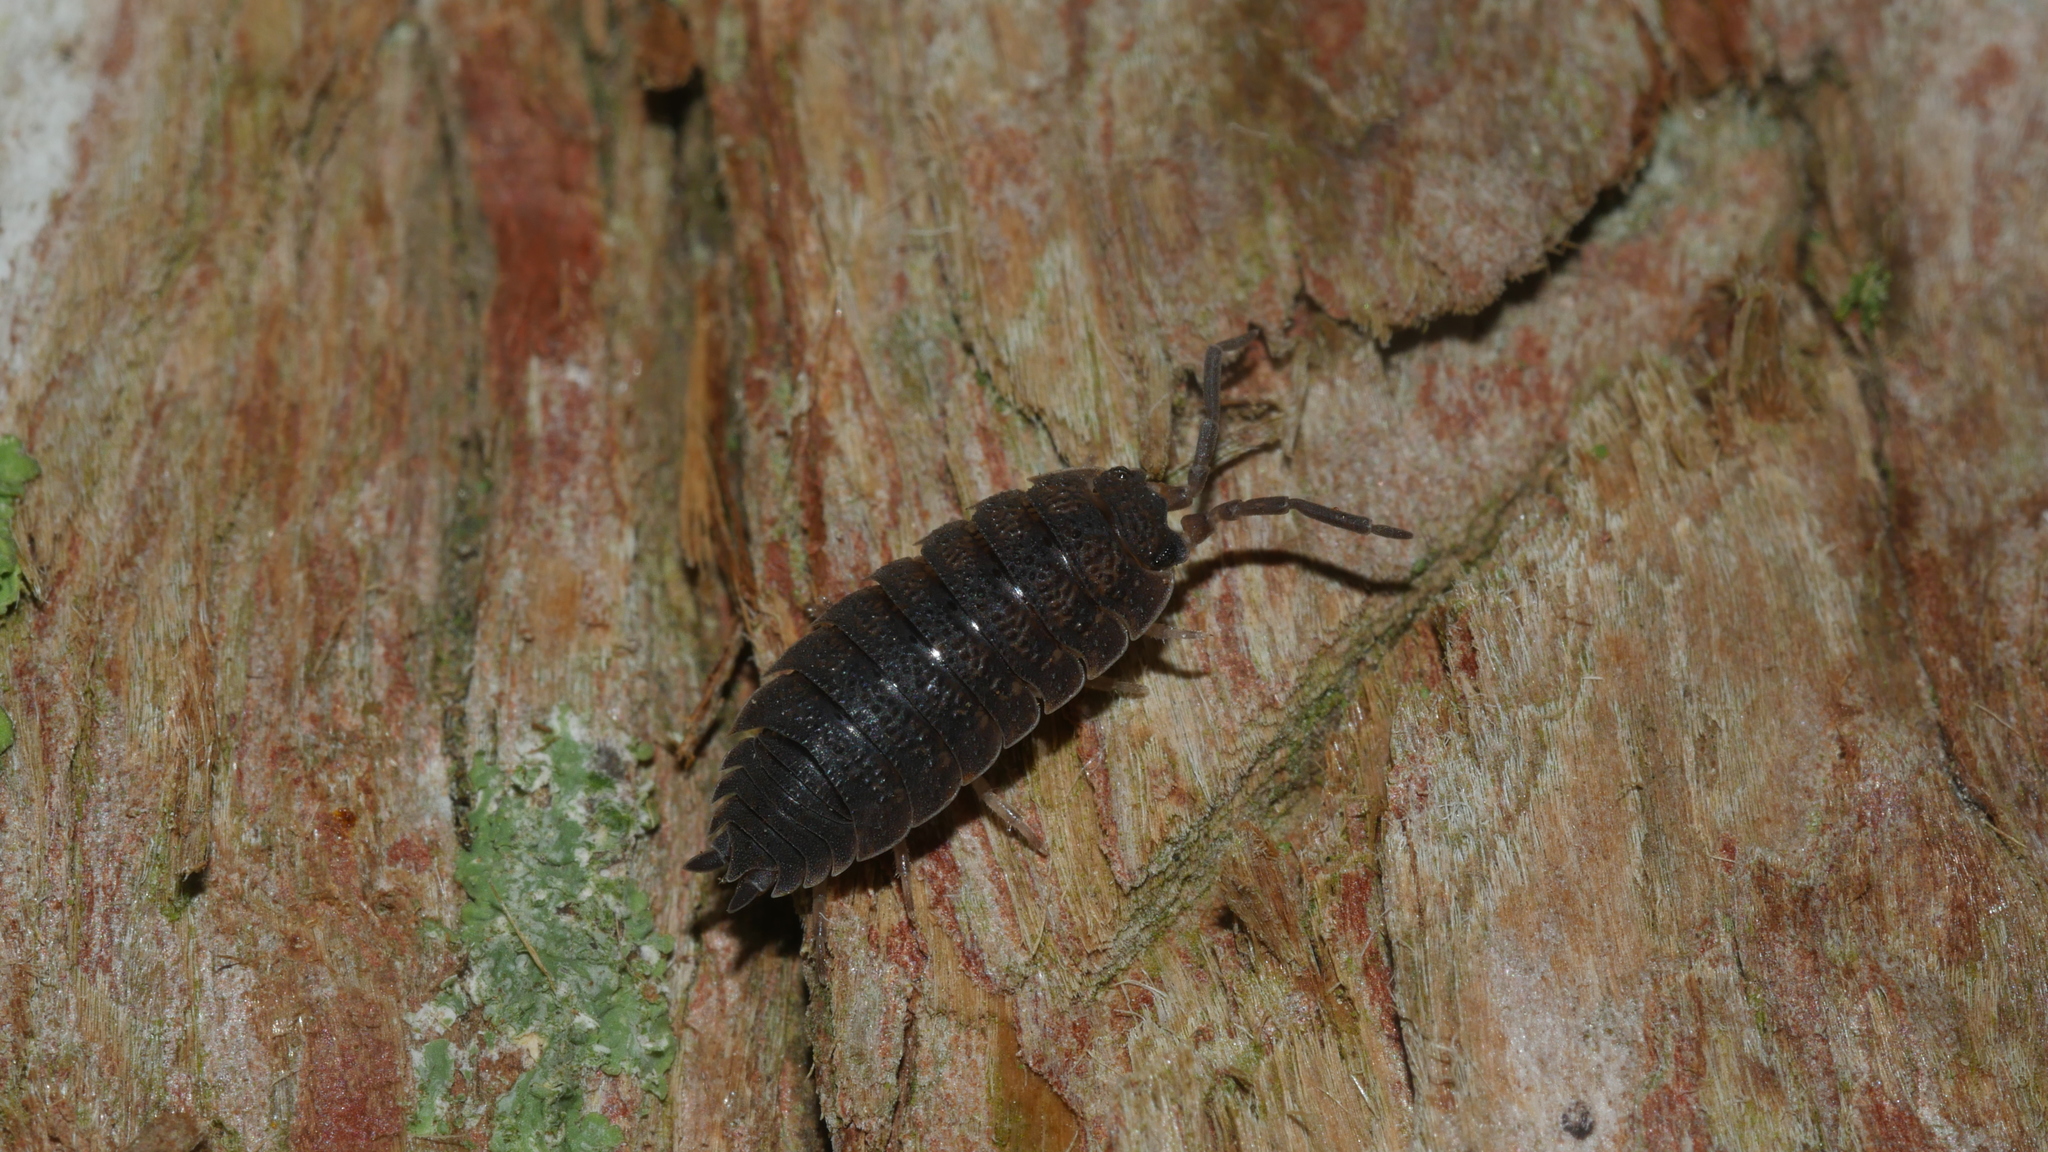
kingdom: Animalia
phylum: Arthropoda
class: Malacostraca
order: Isopoda
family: Porcellionidae
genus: Porcellio
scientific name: Porcellio scaber
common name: Common rough woodlouse
